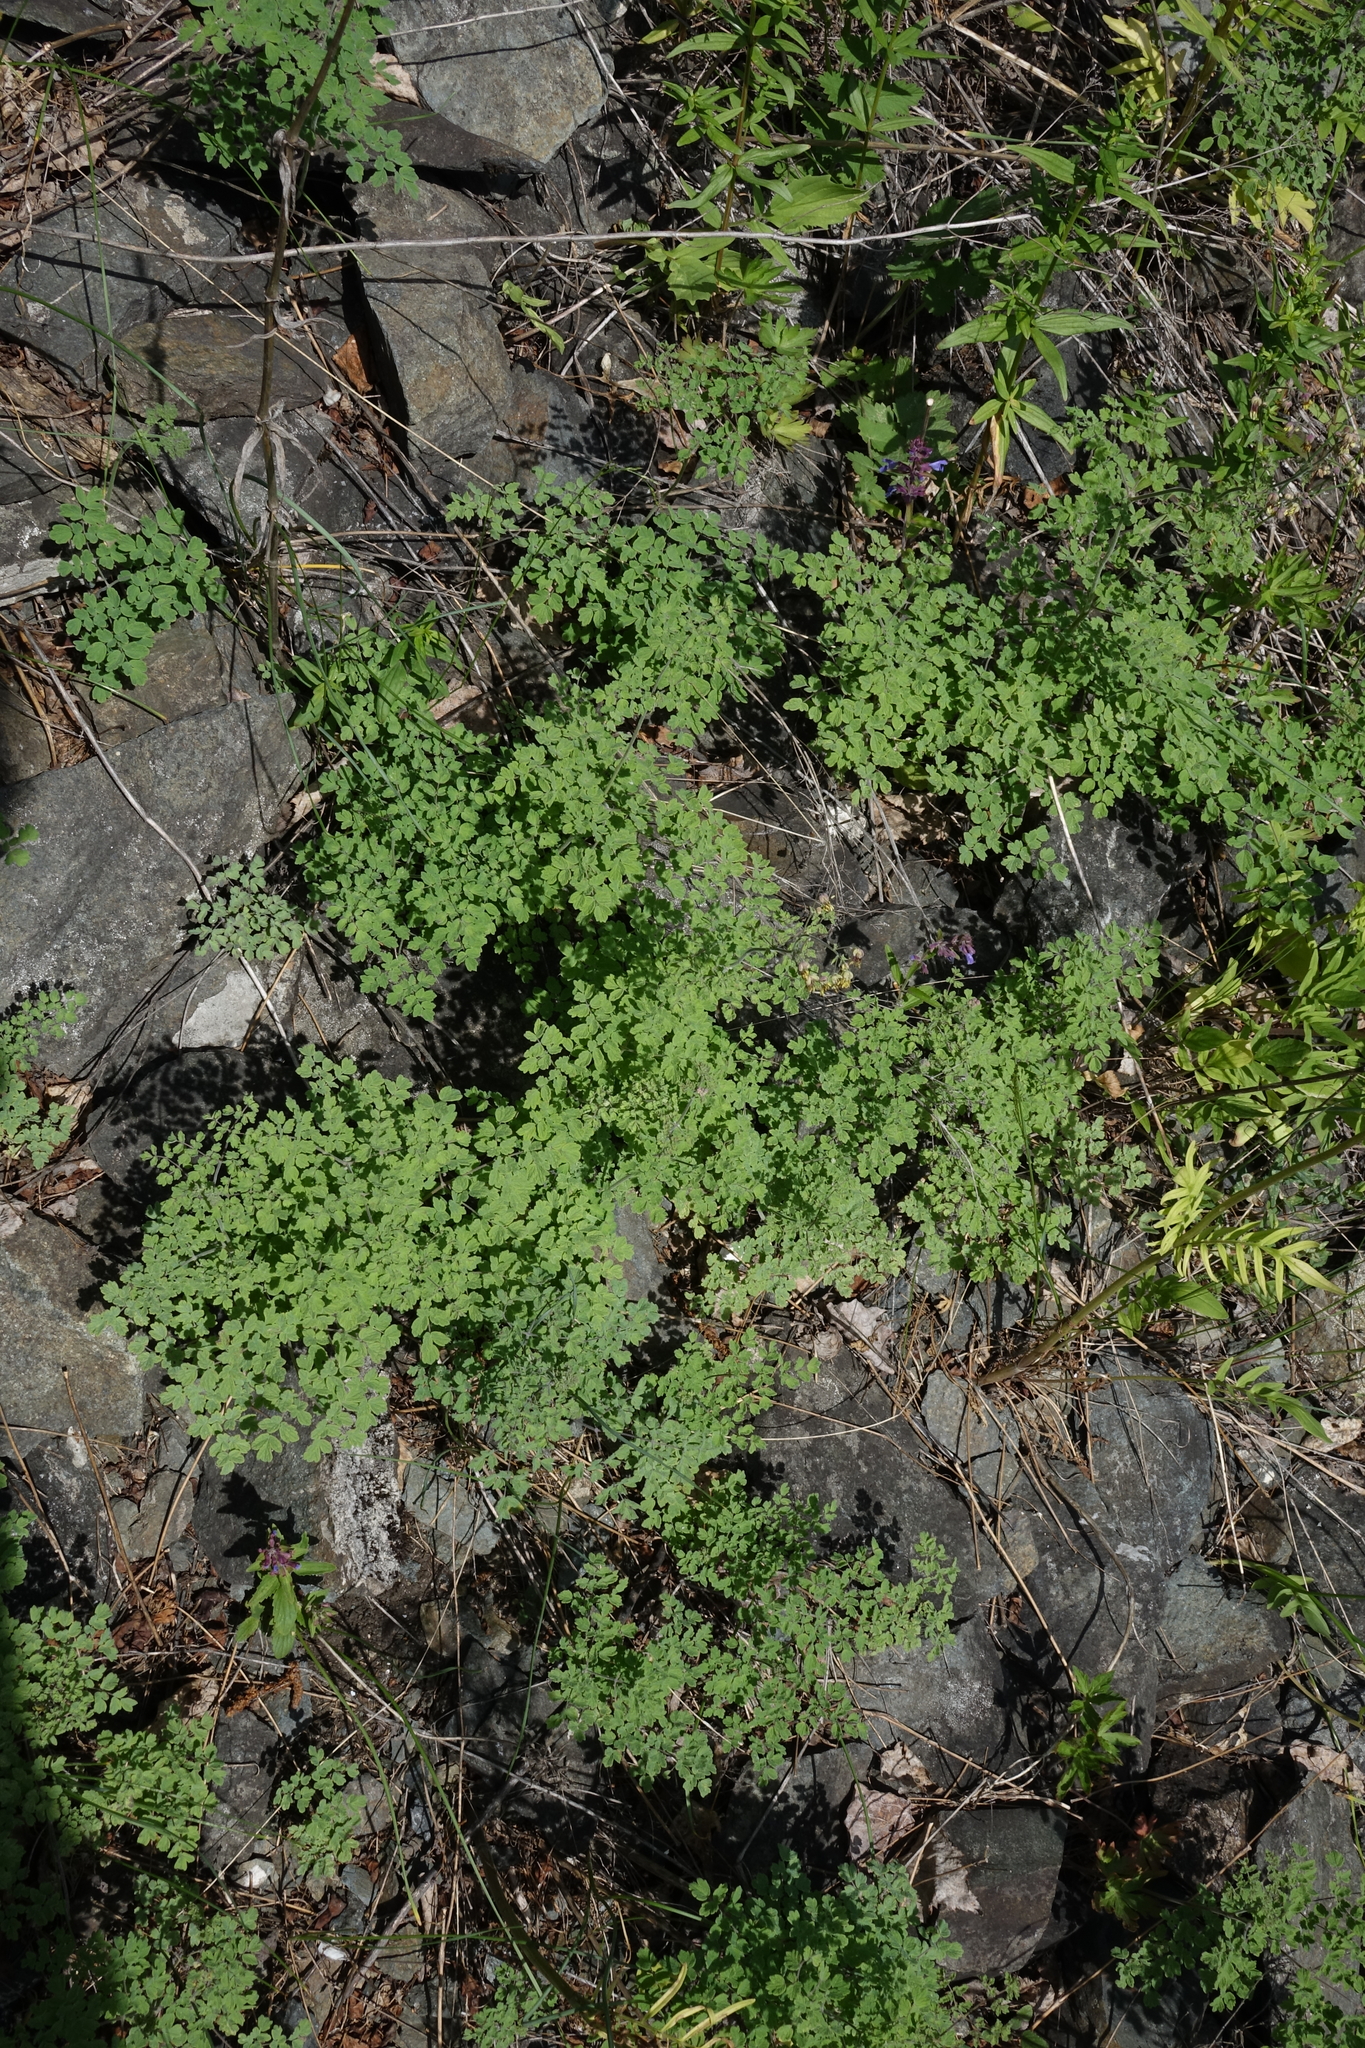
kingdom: Plantae
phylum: Tracheophyta
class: Magnoliopsida
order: Ranunculales
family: Ranunculaceae
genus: Thalictrum
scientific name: Thalictrum foetidum
